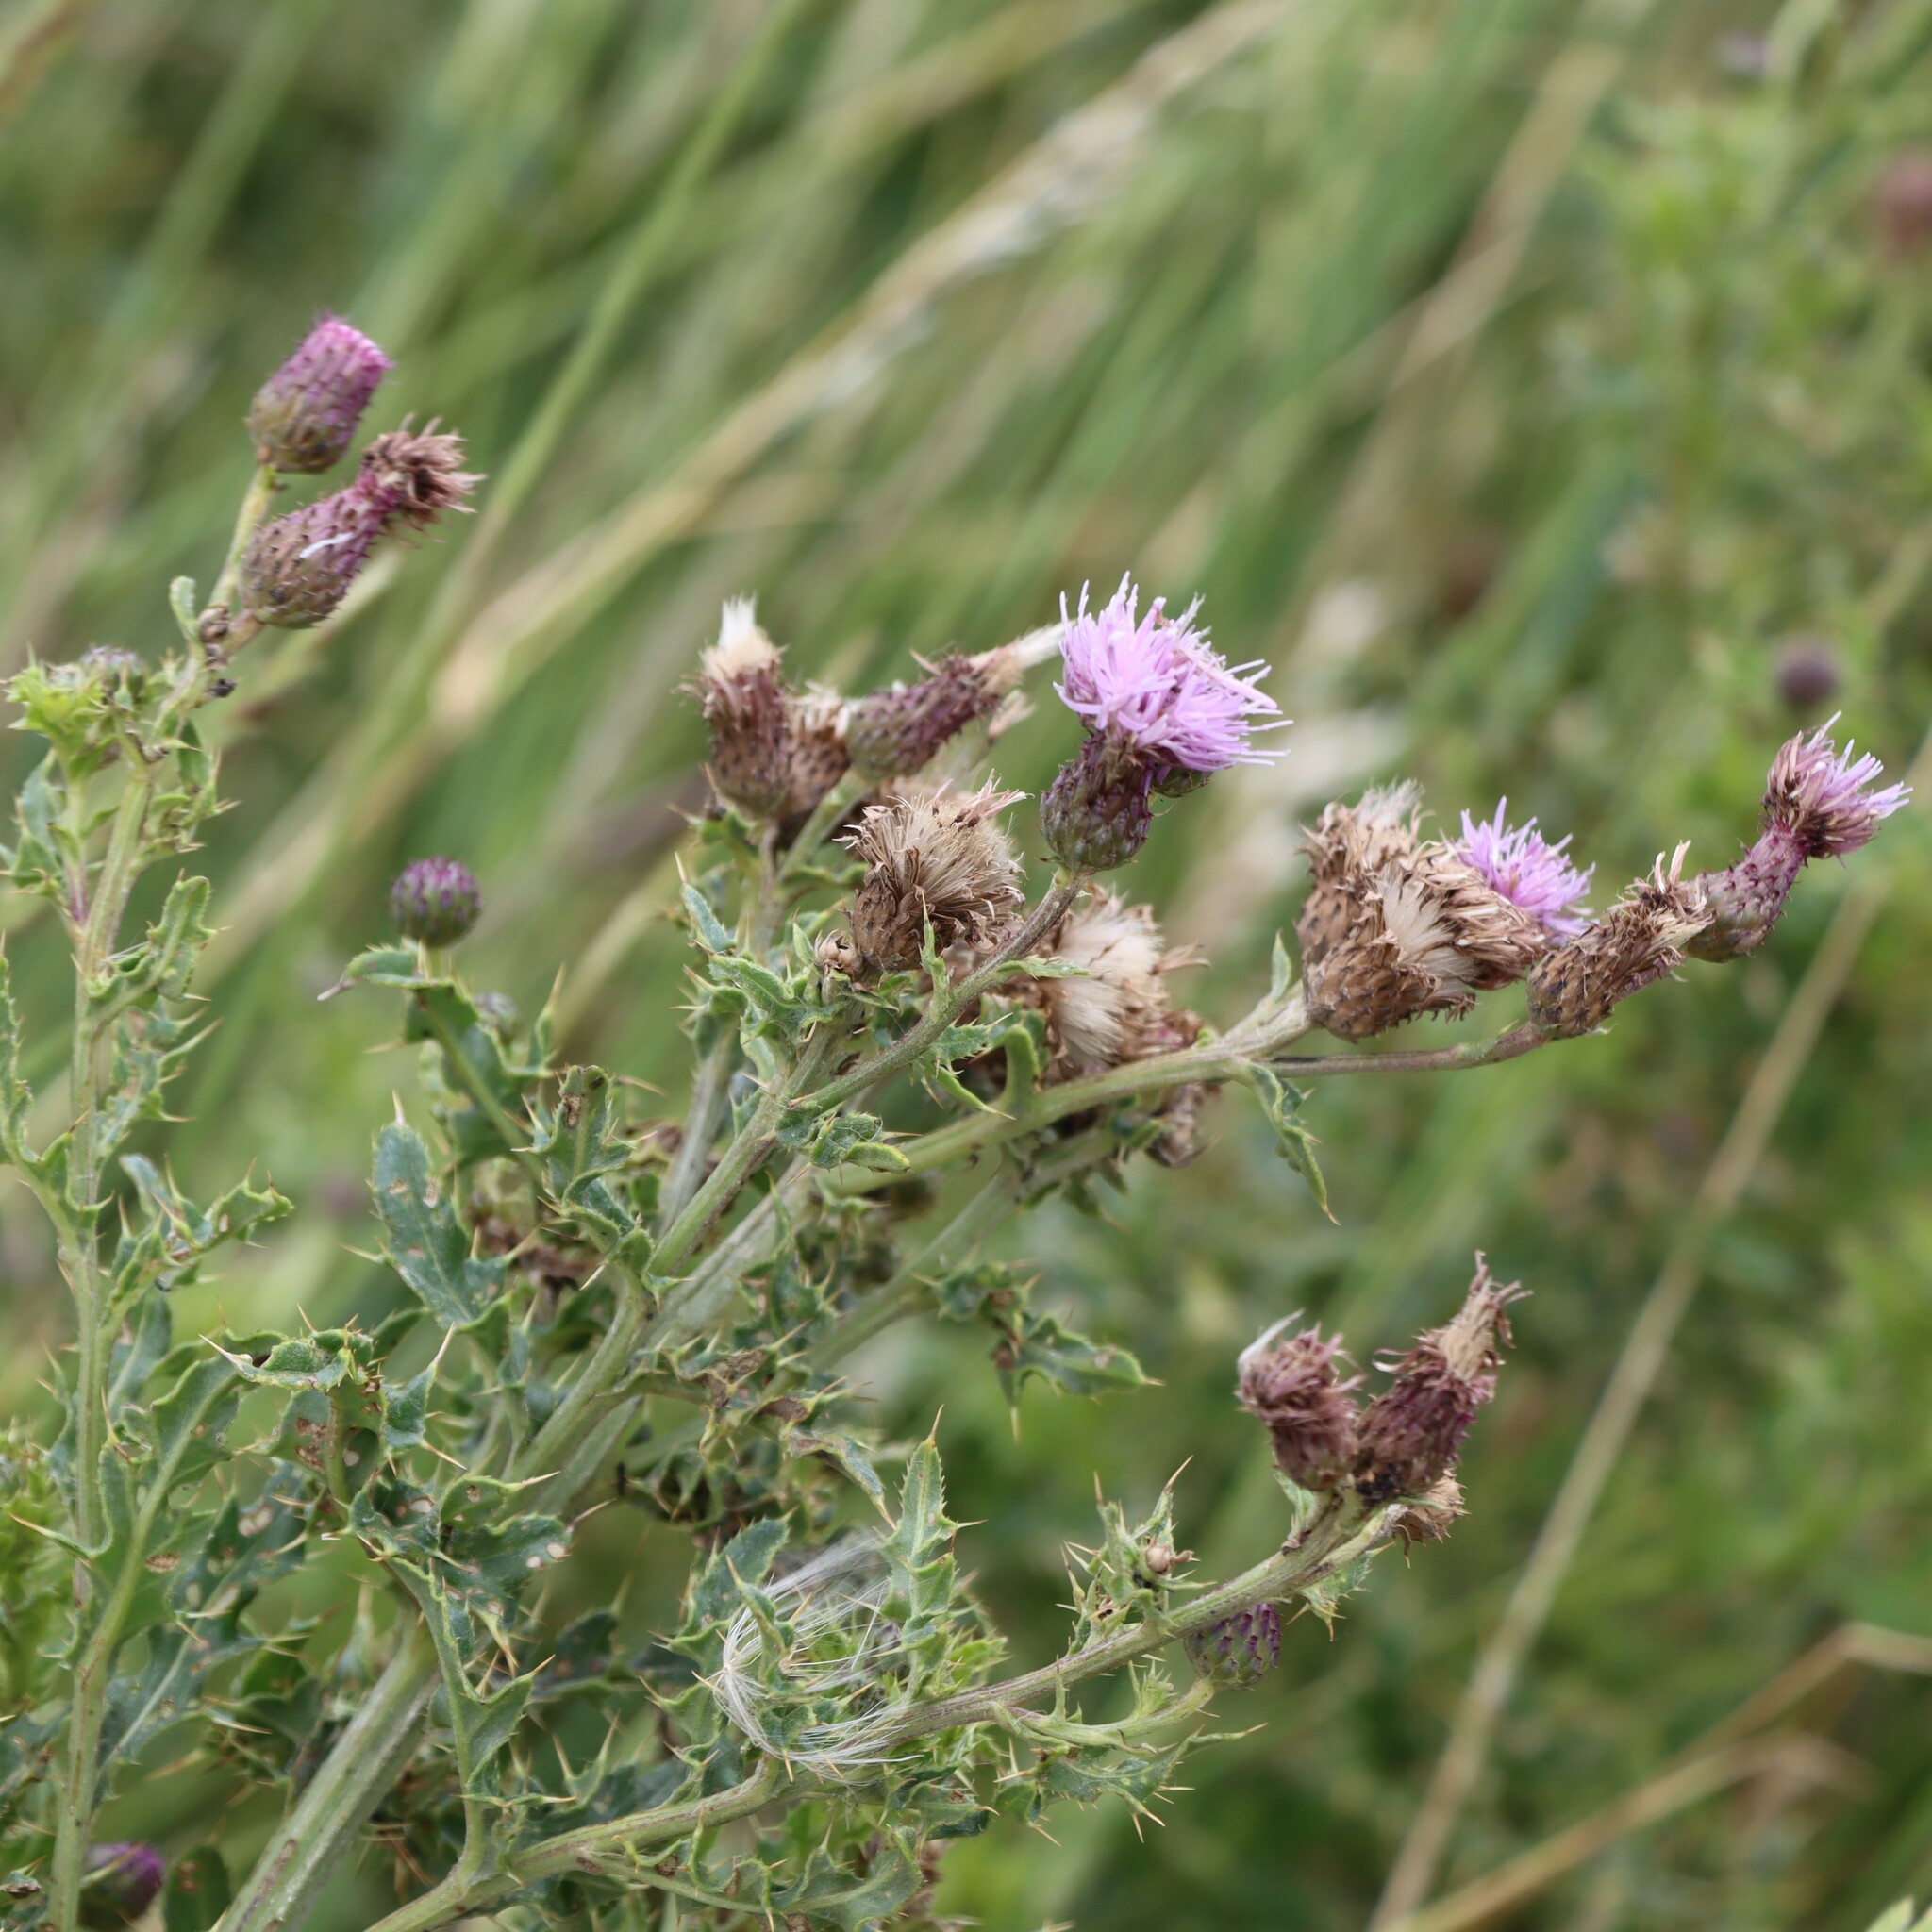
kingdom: Plantae
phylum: Tracheophyta
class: Magnoliopsida
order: Asterales
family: Asteraceae
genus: Cirsium
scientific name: Cirsium arvense
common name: Creeping thistle
